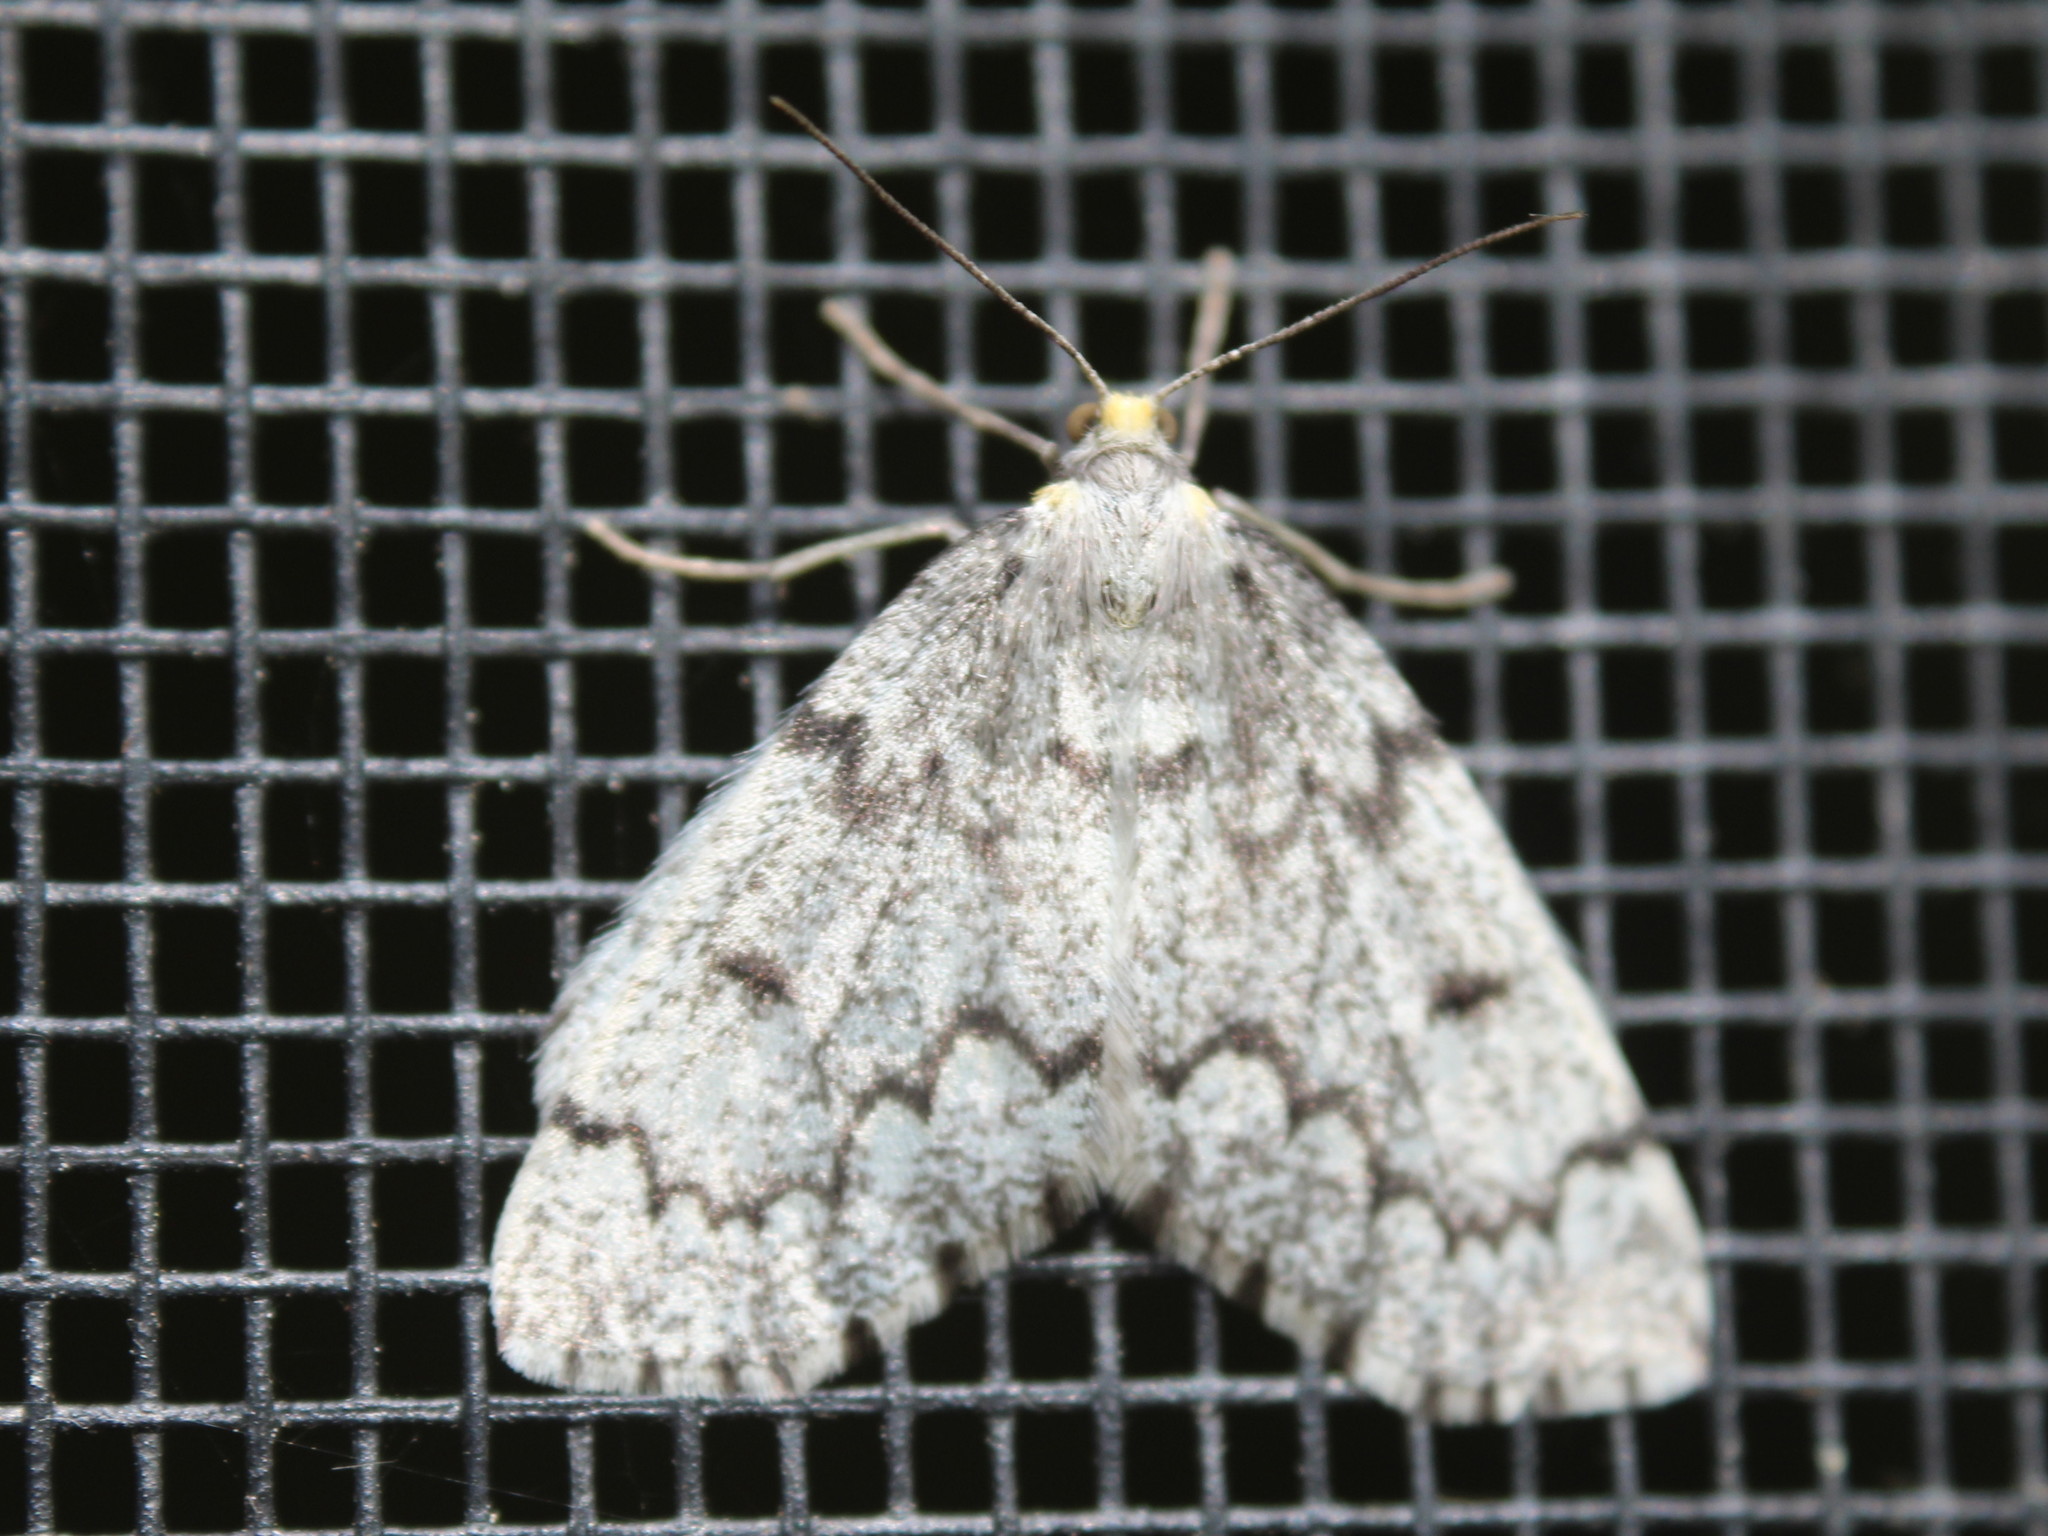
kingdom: Animalia
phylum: Arthropoda
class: Insecta
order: Lepidoptera
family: Geometridae
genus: Nepytia
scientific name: Nepytia canosaria
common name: False hemlock looper
